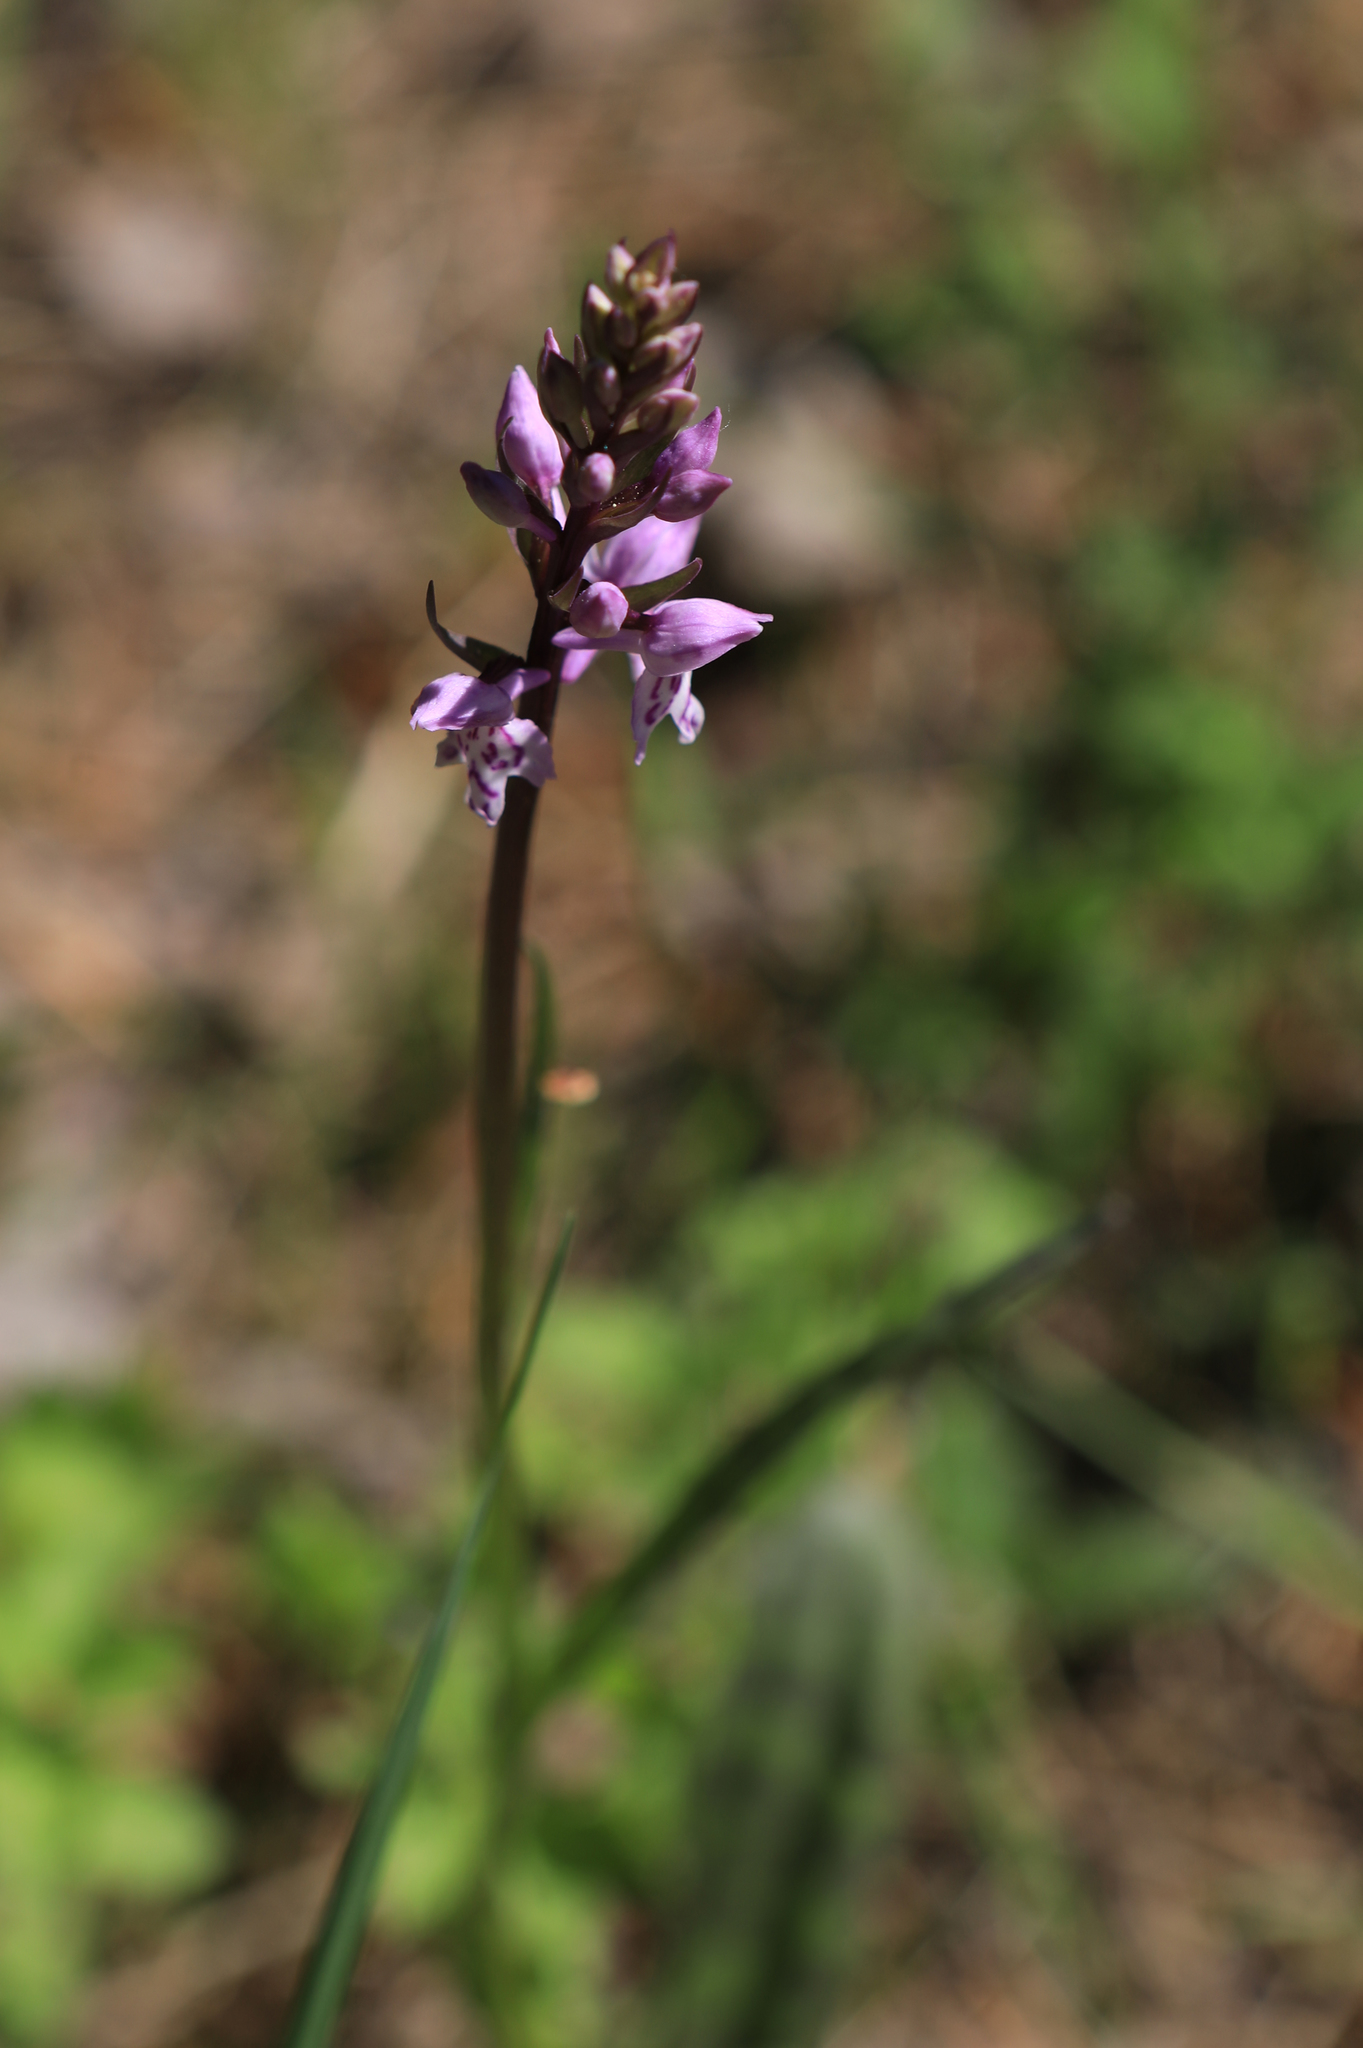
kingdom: Plantae
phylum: Tracheophyta
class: Liliopsida
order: Asparagales
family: Orchidaceae
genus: Dactylorhiza
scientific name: Dactylorhiza maculata
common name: Heath spotted-orchid
